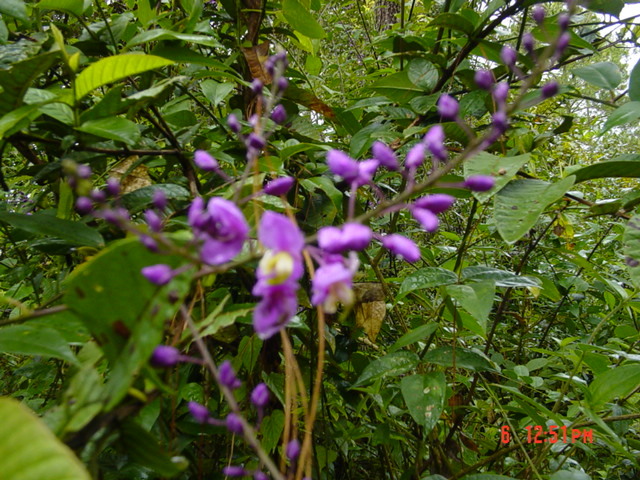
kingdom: Plantae
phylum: Tracheophyta
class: Magnoliopsida
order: Fabales
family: Polygalaceae
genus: Asemeia
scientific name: Asemeia floribunda
